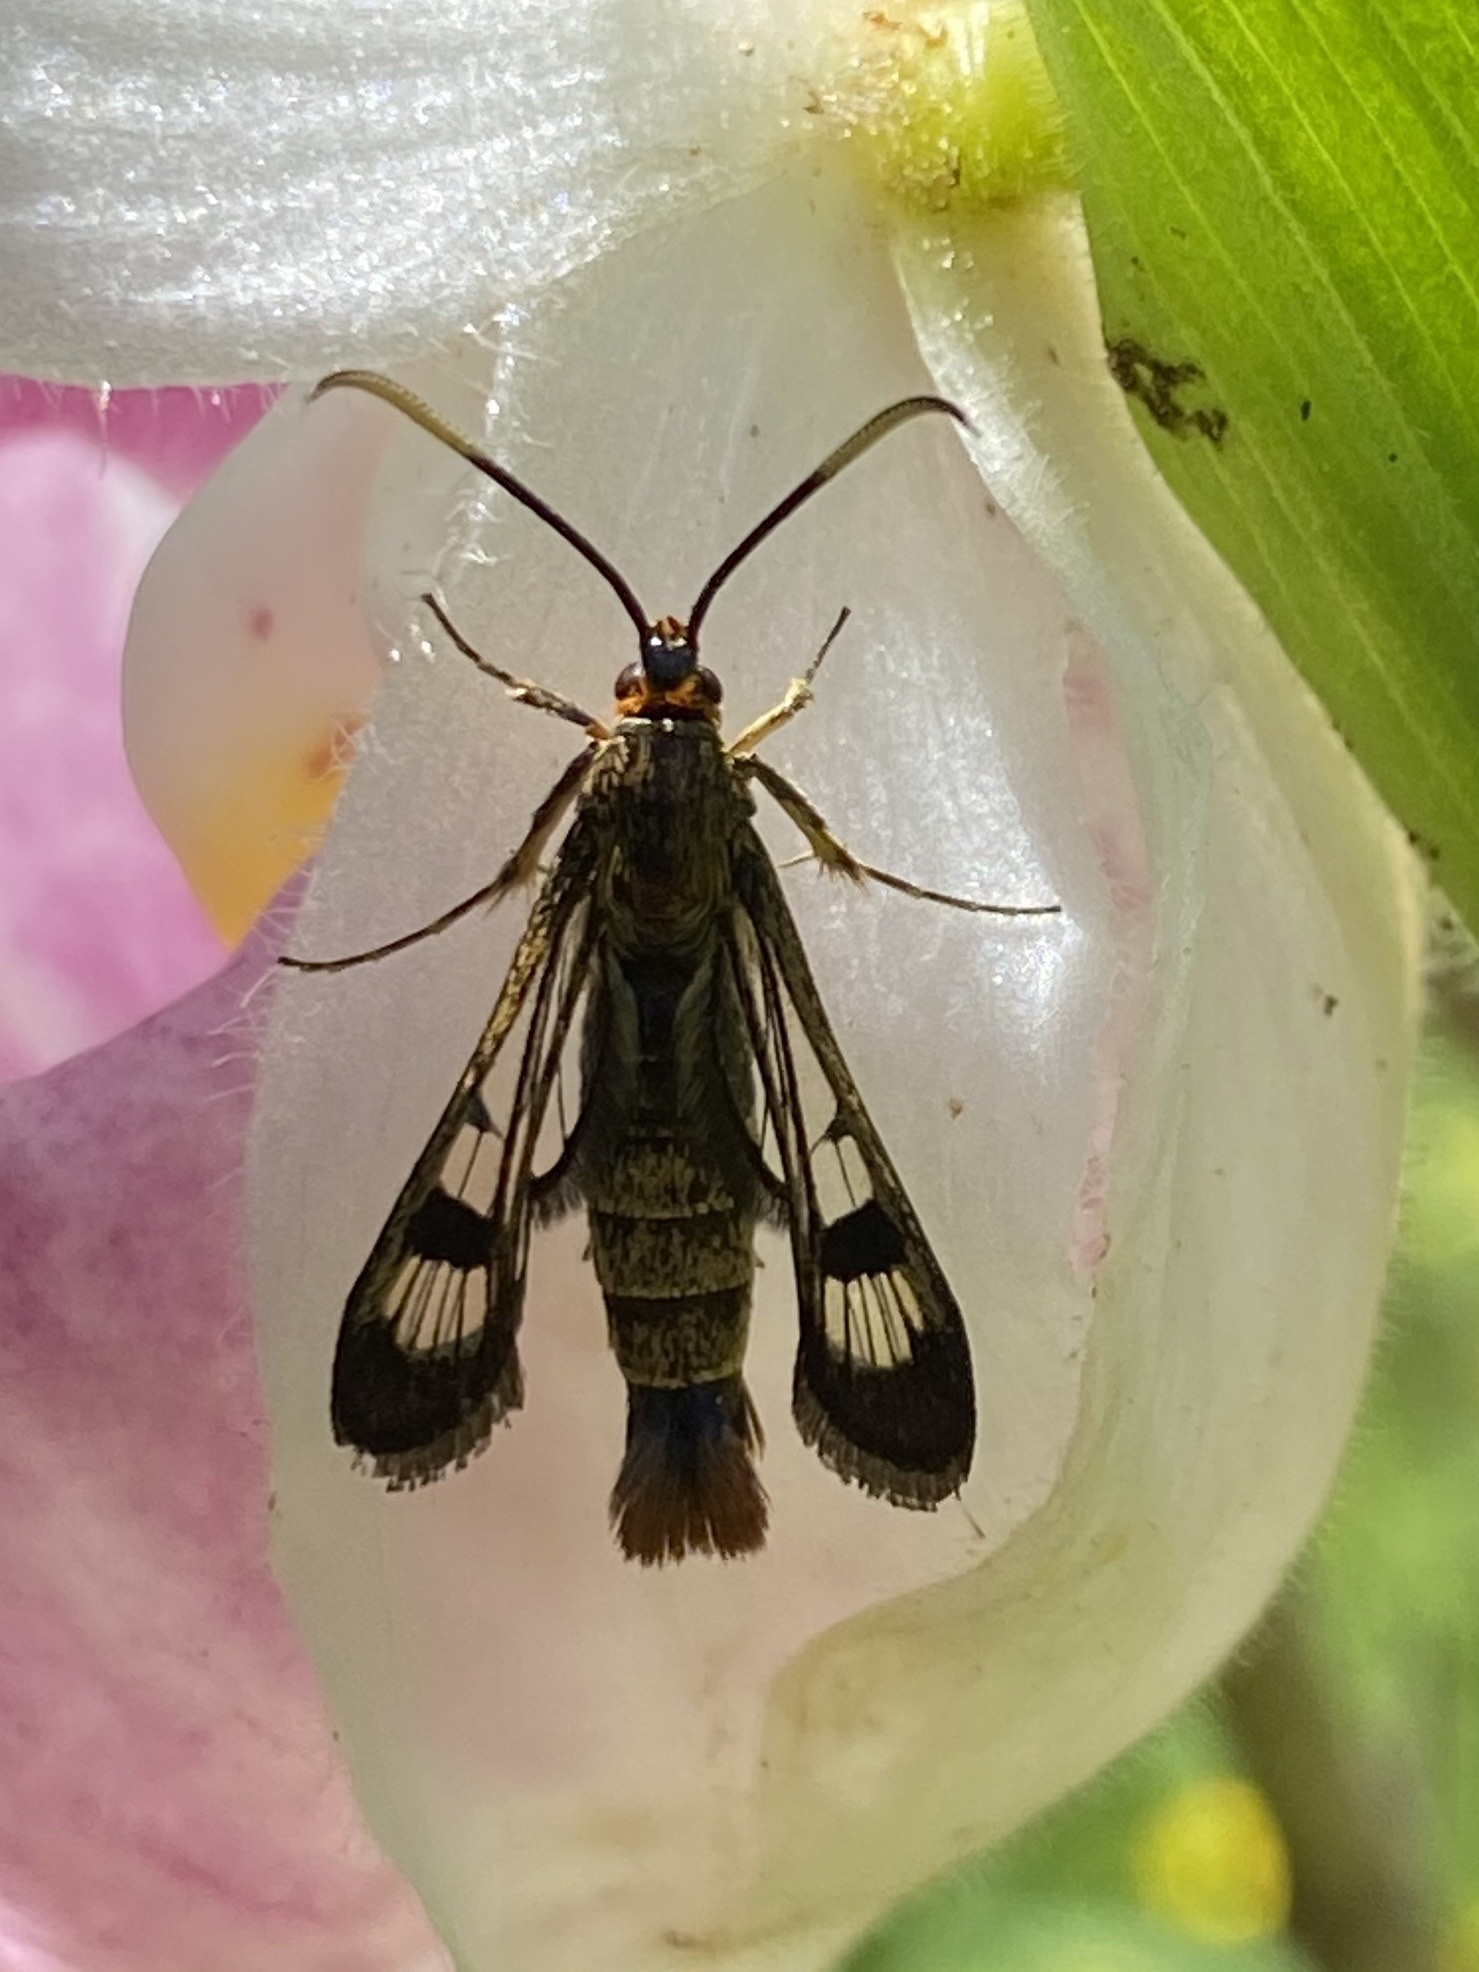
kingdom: Animalia
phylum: Arthropoda
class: Insecta
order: Lepidoptera
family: Sesiidae
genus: Synanthedon
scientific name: Synanthedon acerrubri
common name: Maple clearwing moth
